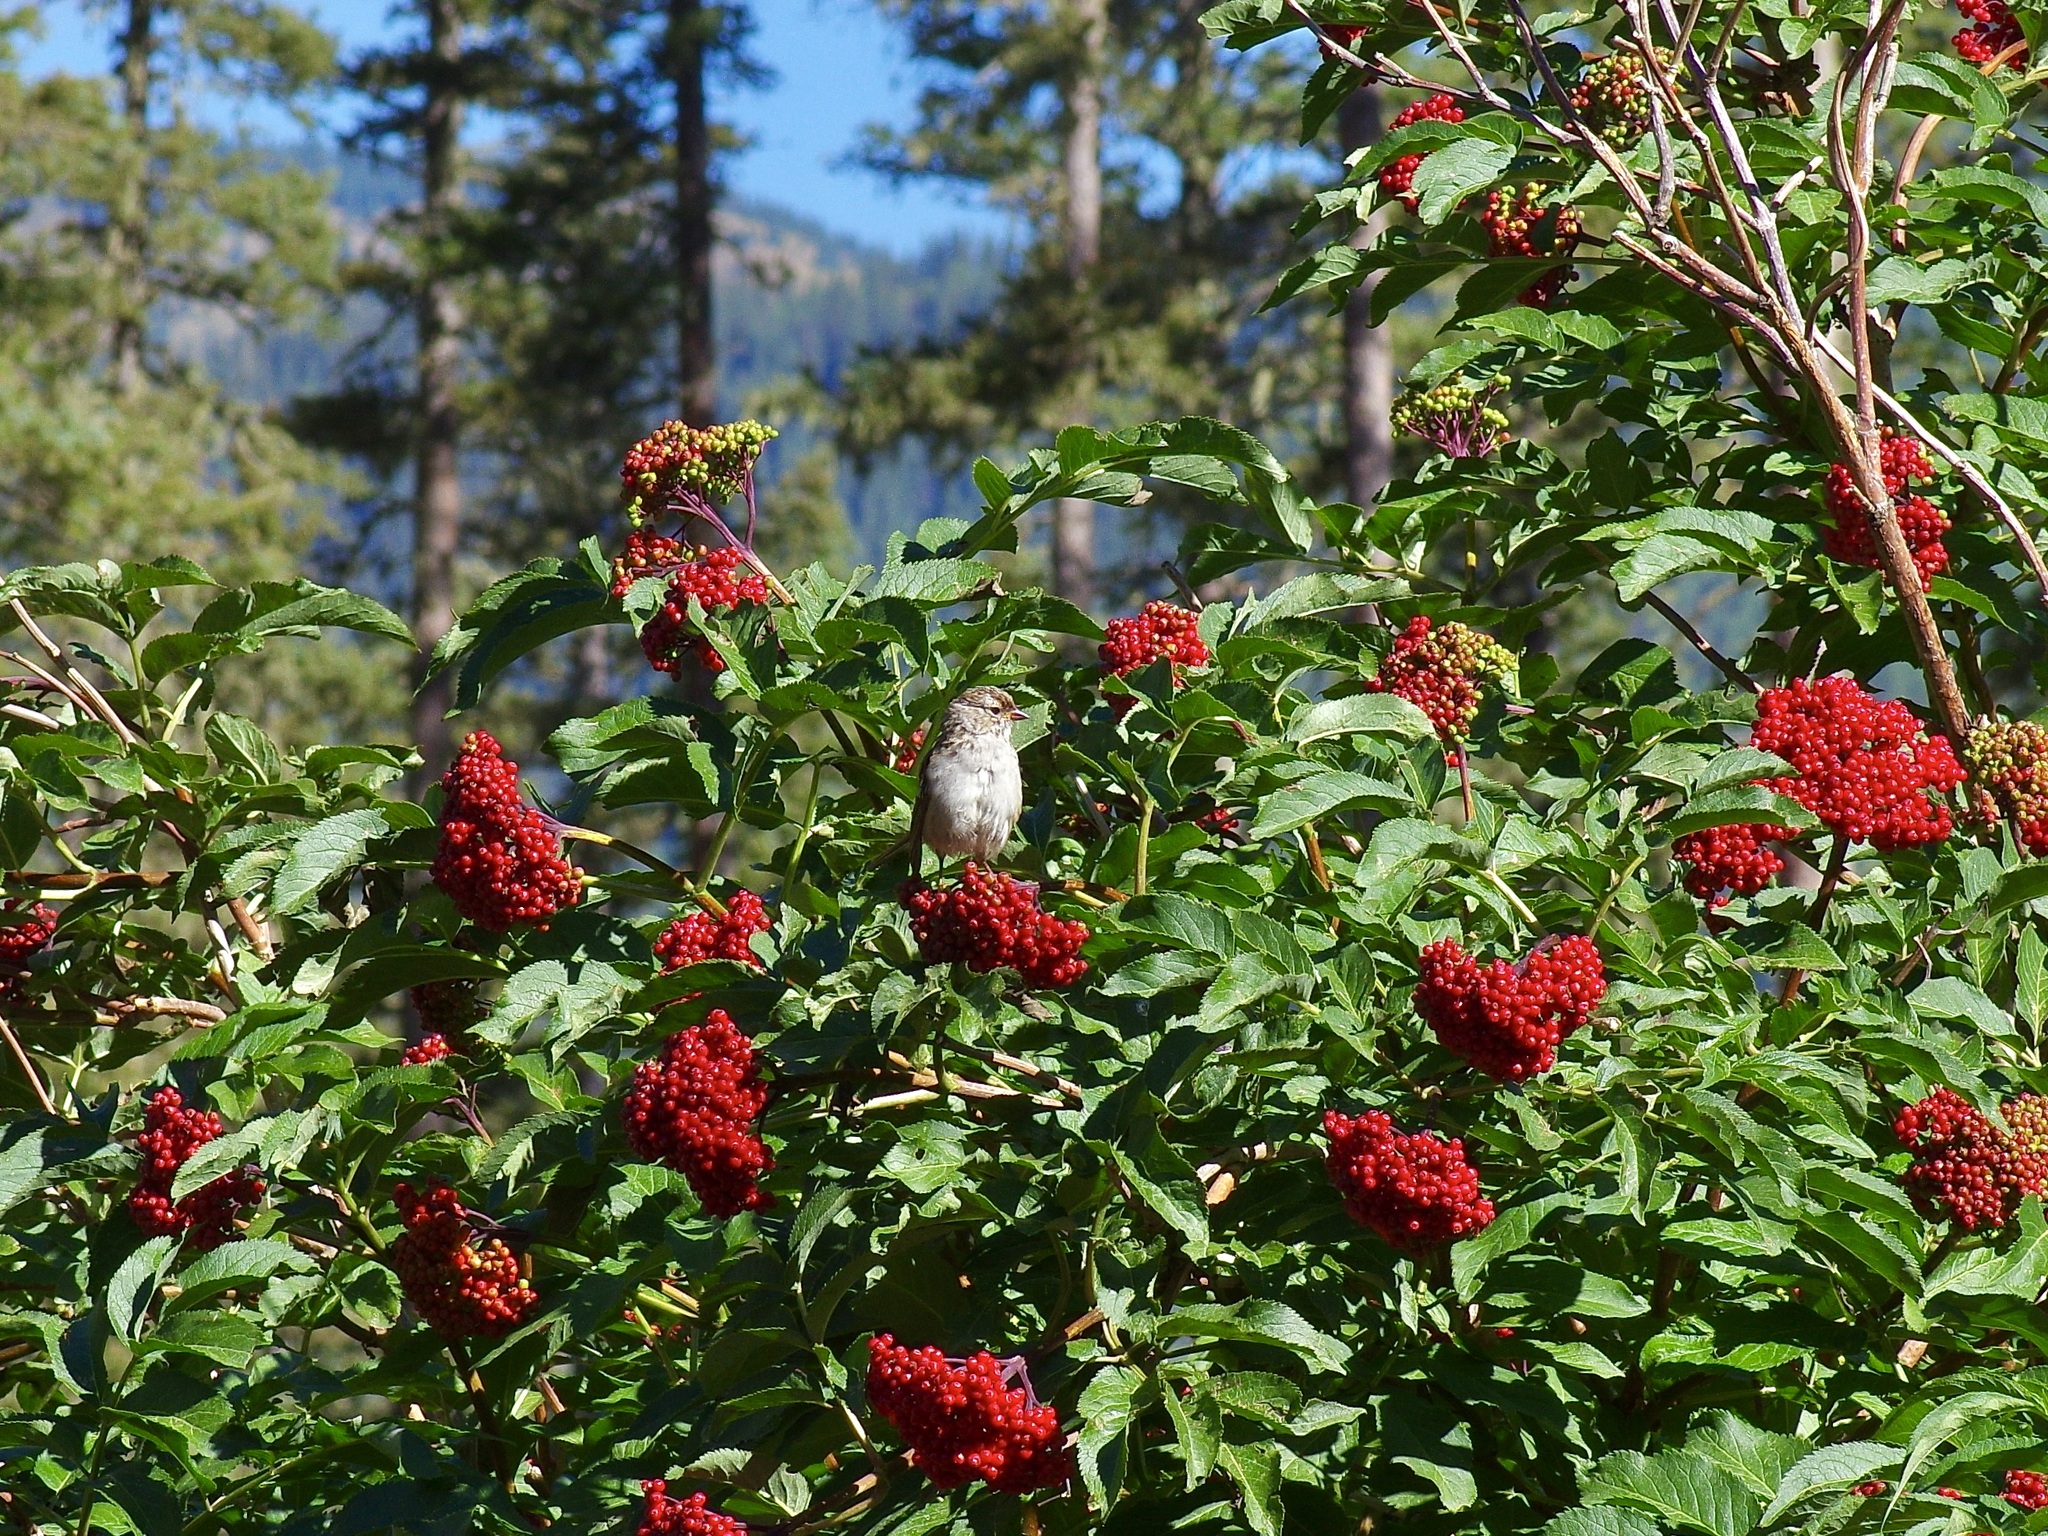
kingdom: Animalia
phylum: Chordata
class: Aves
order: Passeriformes
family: Passerellidae
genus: Spizella
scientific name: Spizella passerina
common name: Chipping sparrow
